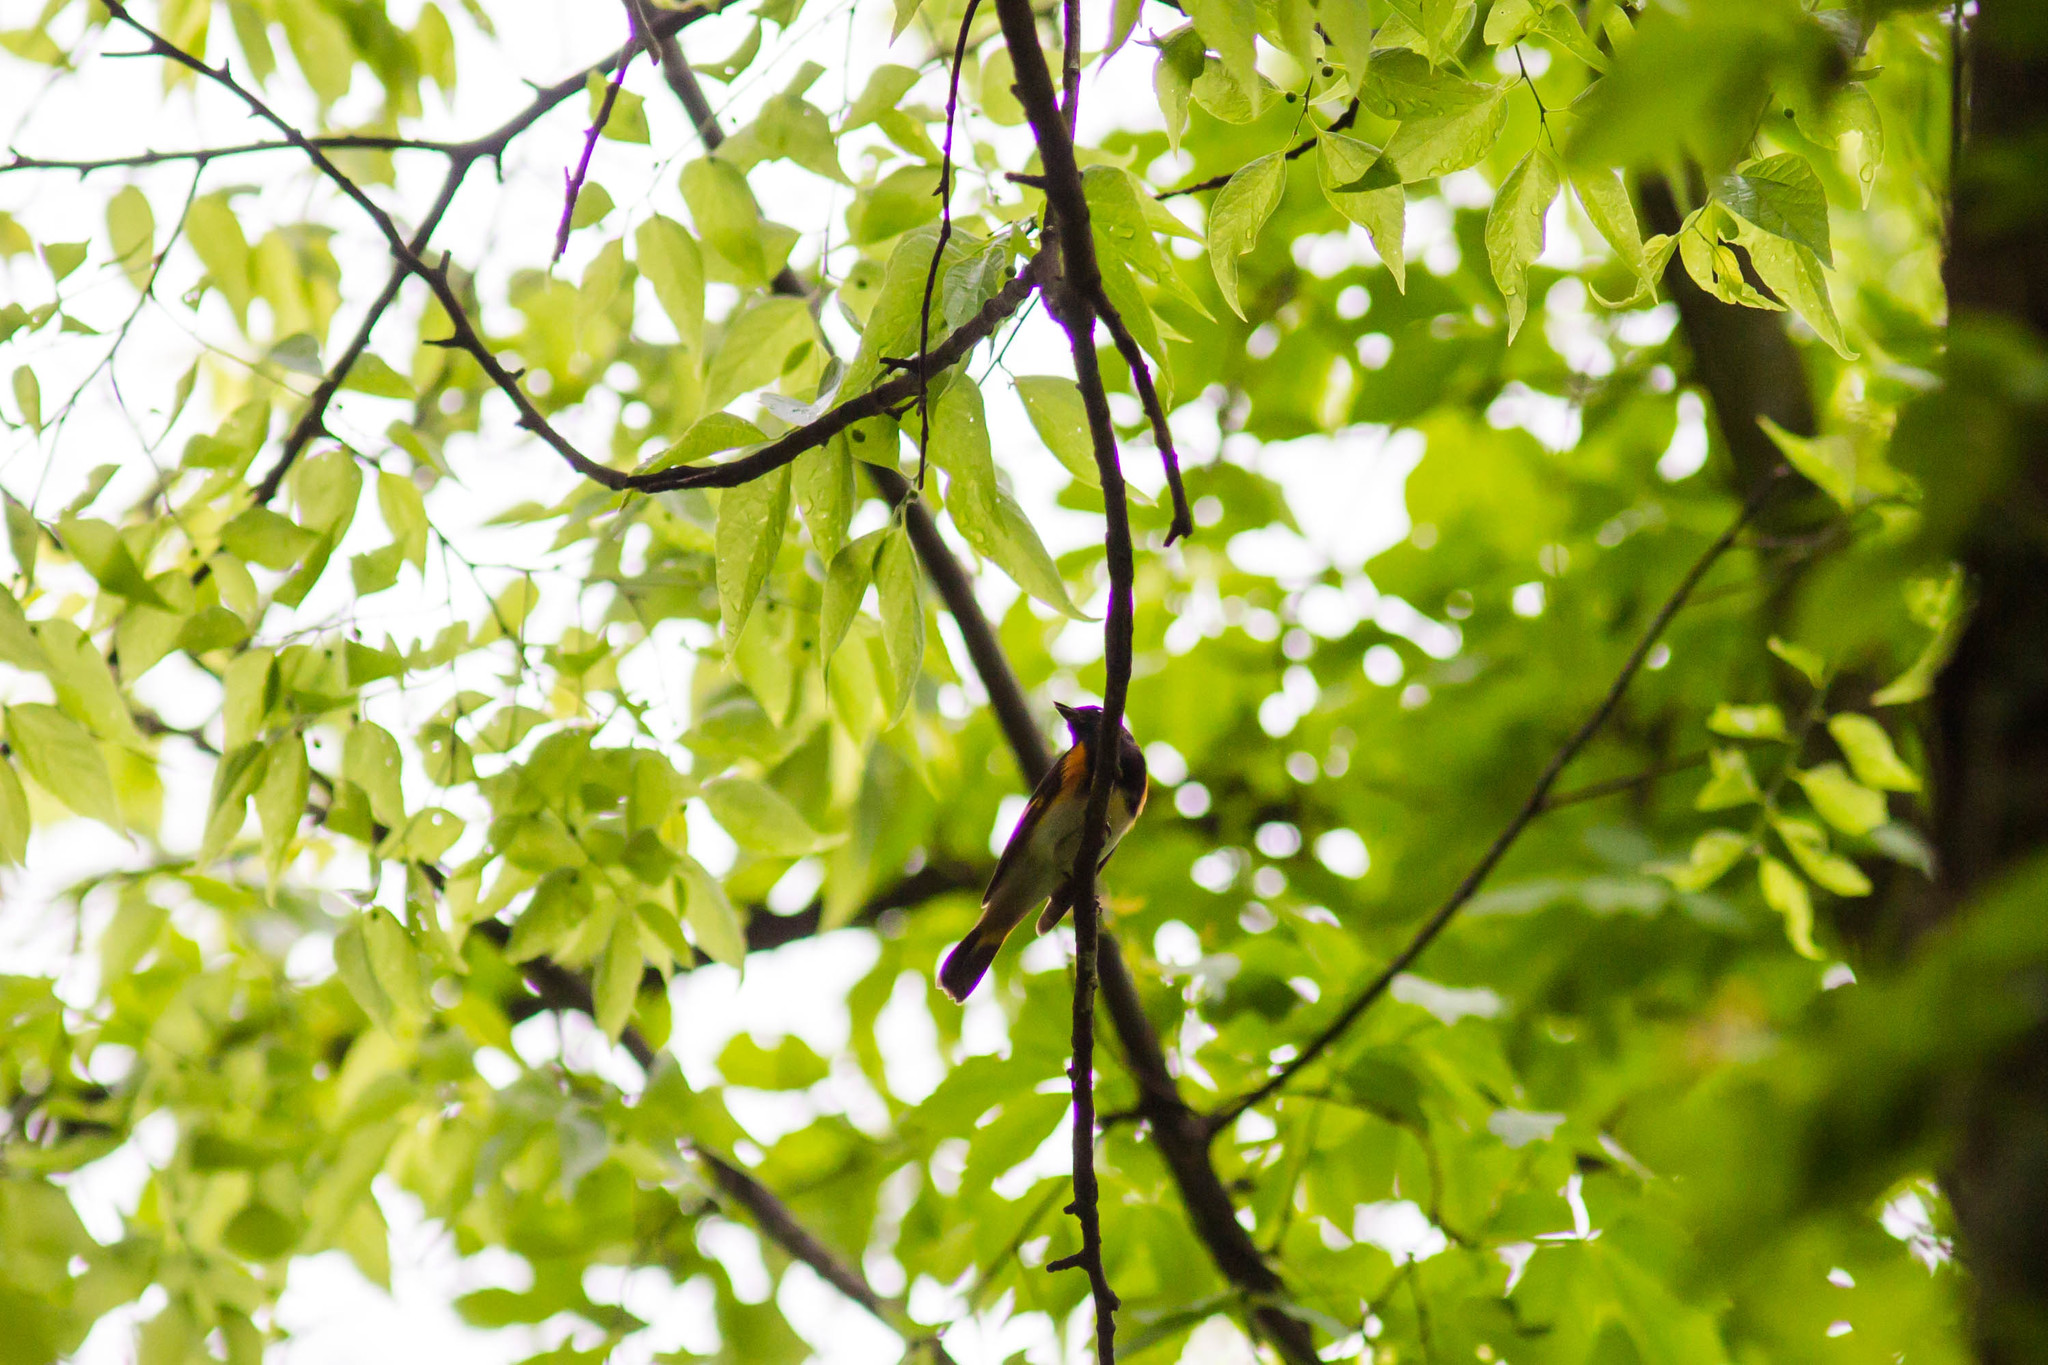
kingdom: Animalia
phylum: Chordata
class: Aves
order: Passeriformes
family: Parulidae
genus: Setophaga
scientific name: Setophaga ruticilla
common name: American redstart
